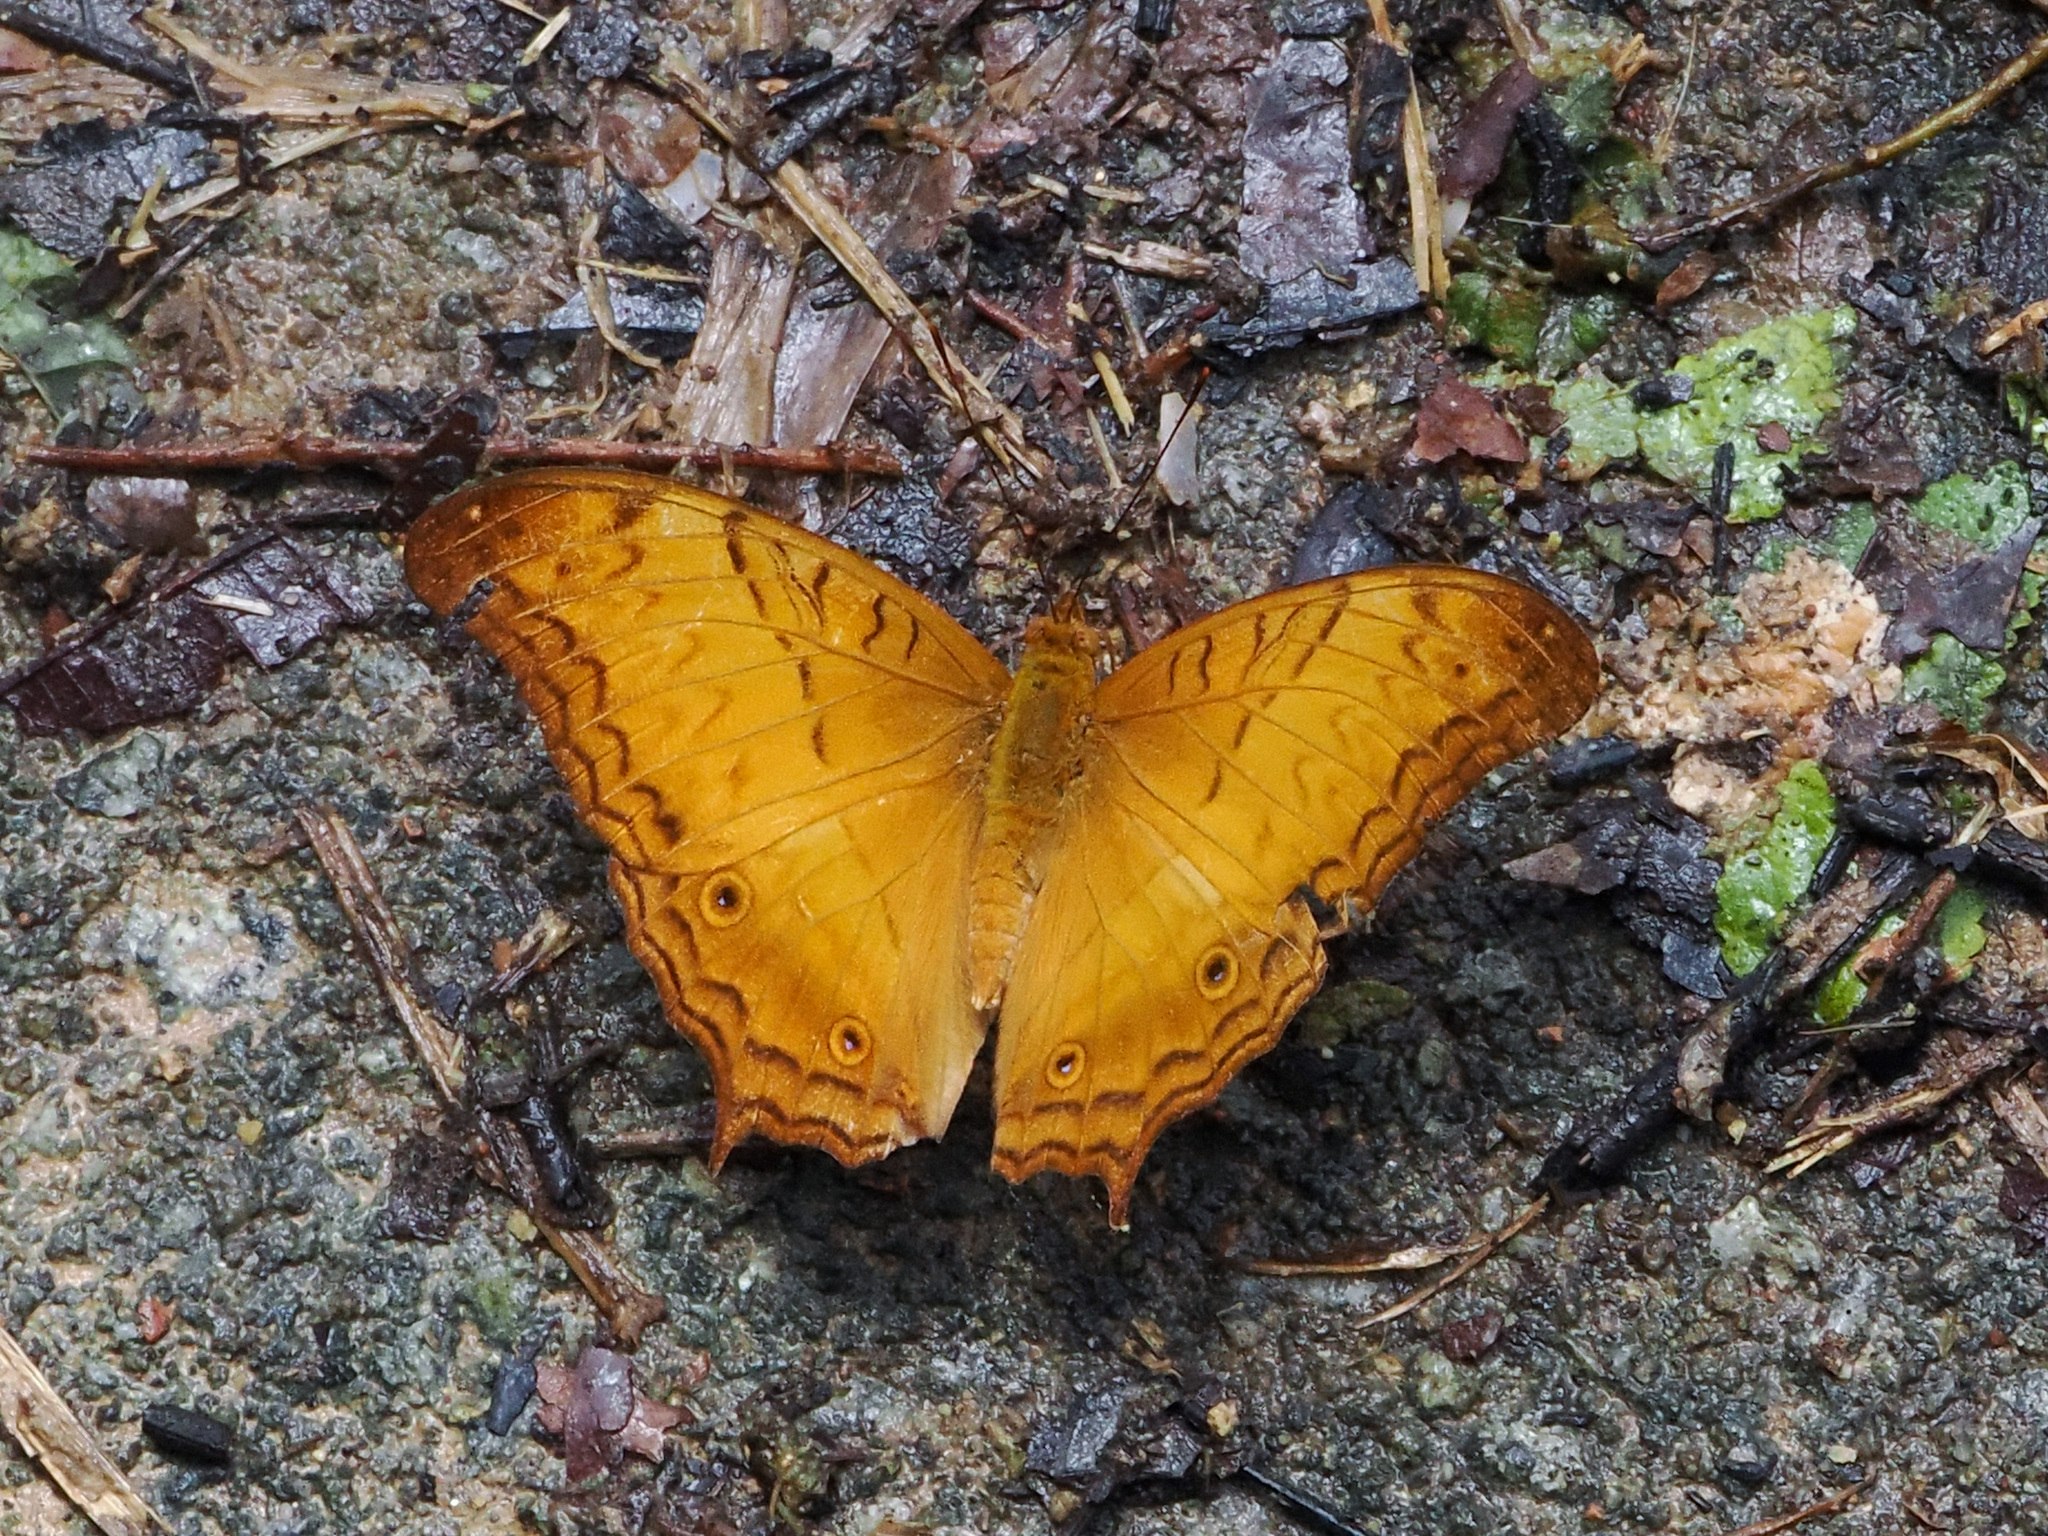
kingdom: Animalia
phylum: Arthropoda
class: Insecta
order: Lepidoptera
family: Nymphalidae
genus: Vindula
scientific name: Vindula deione
